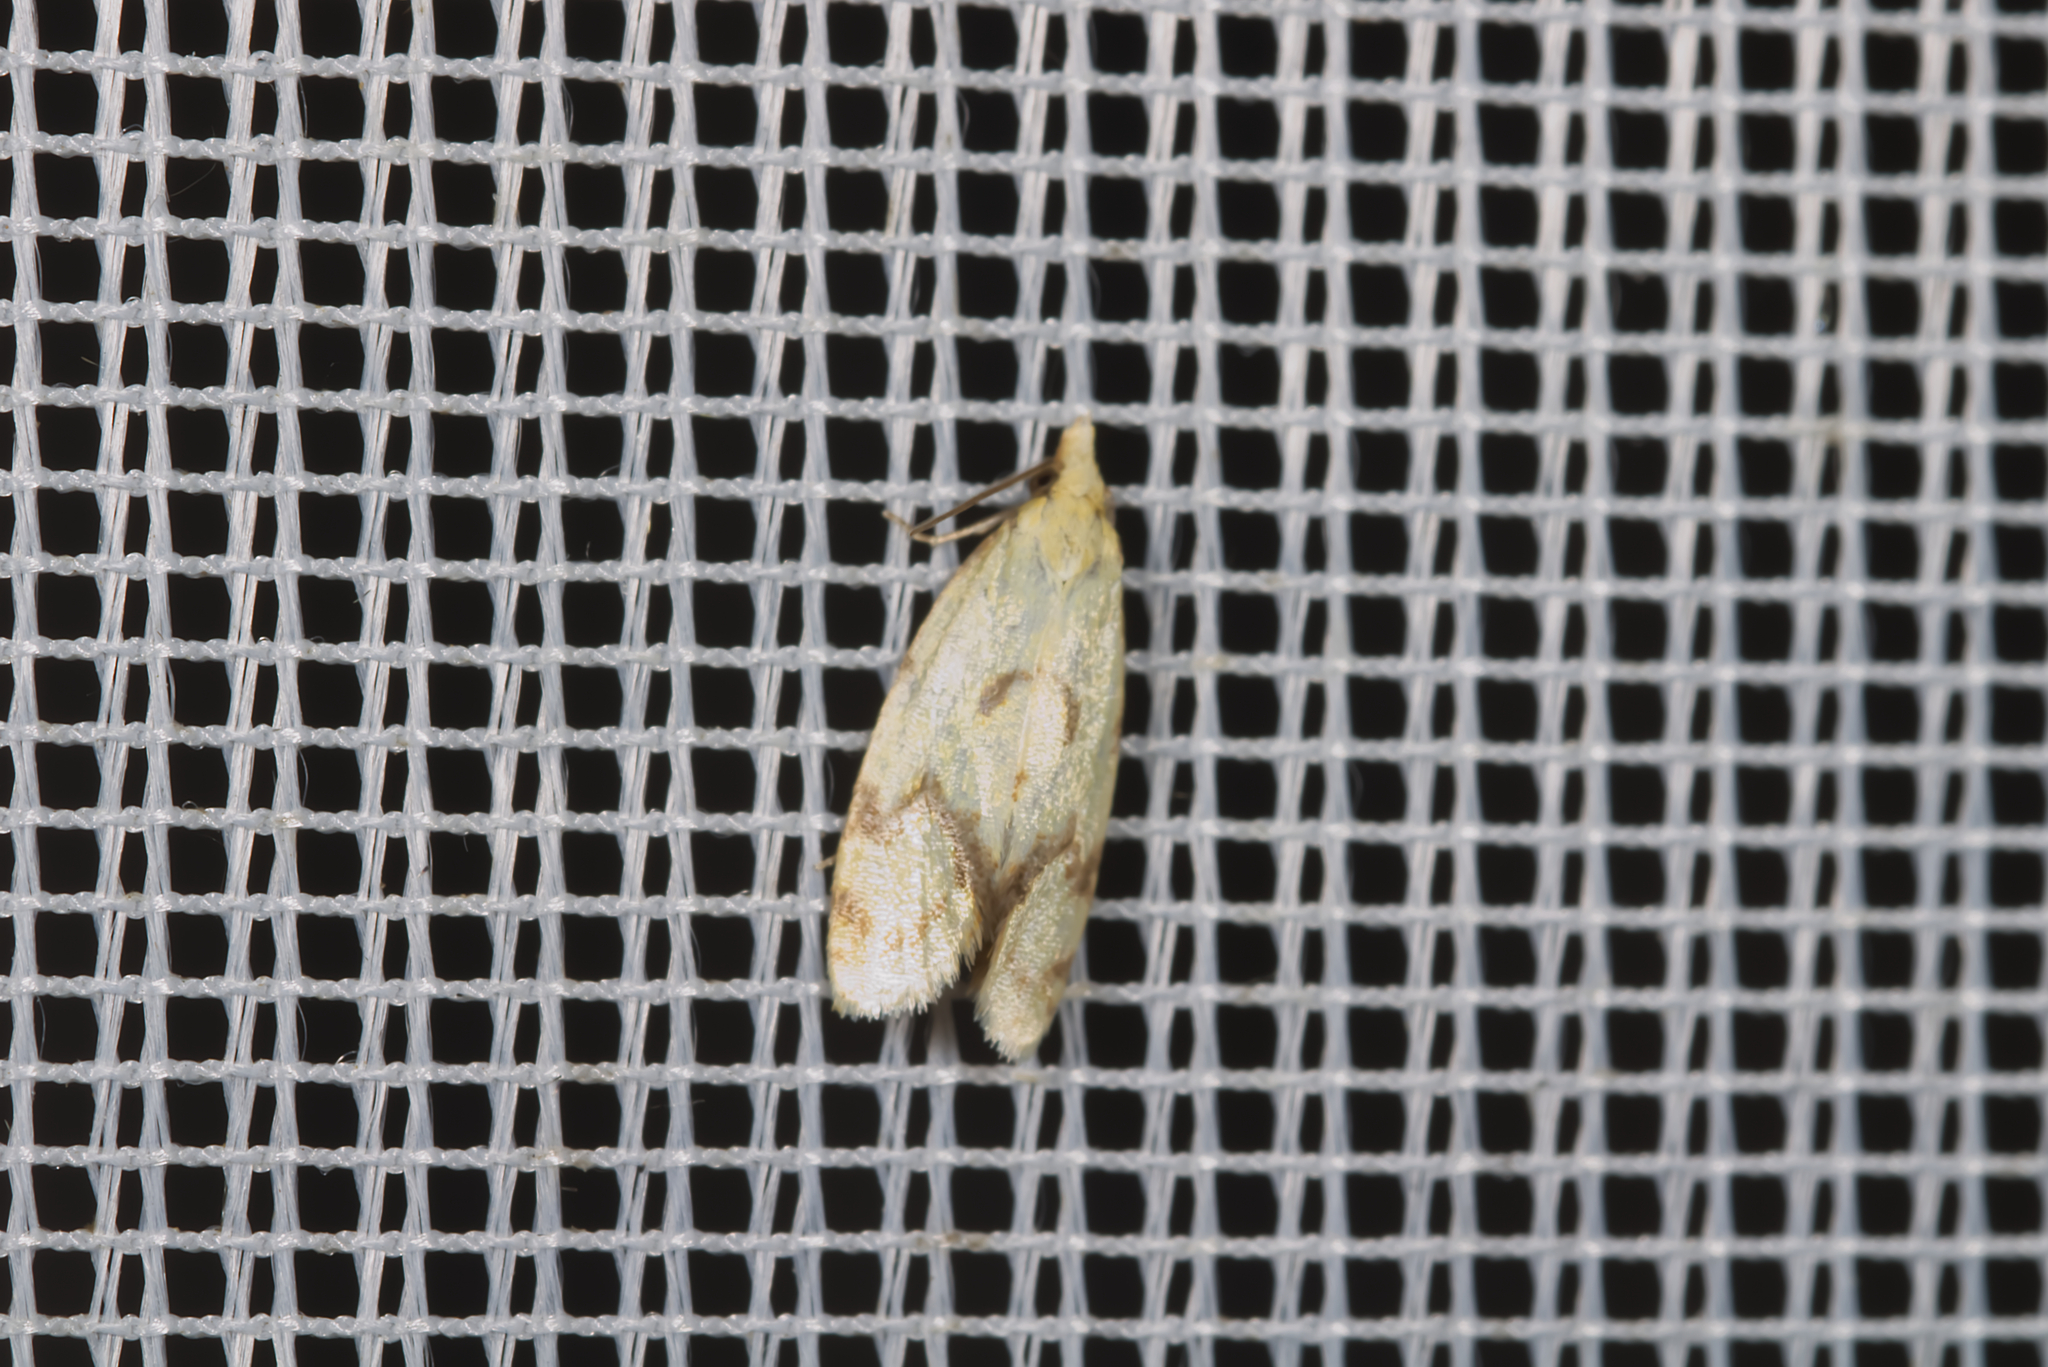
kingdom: Animalia
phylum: Arthropoda
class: Insecta
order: Lepidoptera
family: Tortricidae
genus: Agapeta
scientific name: Agapeta hamana
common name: Common yellow conch
